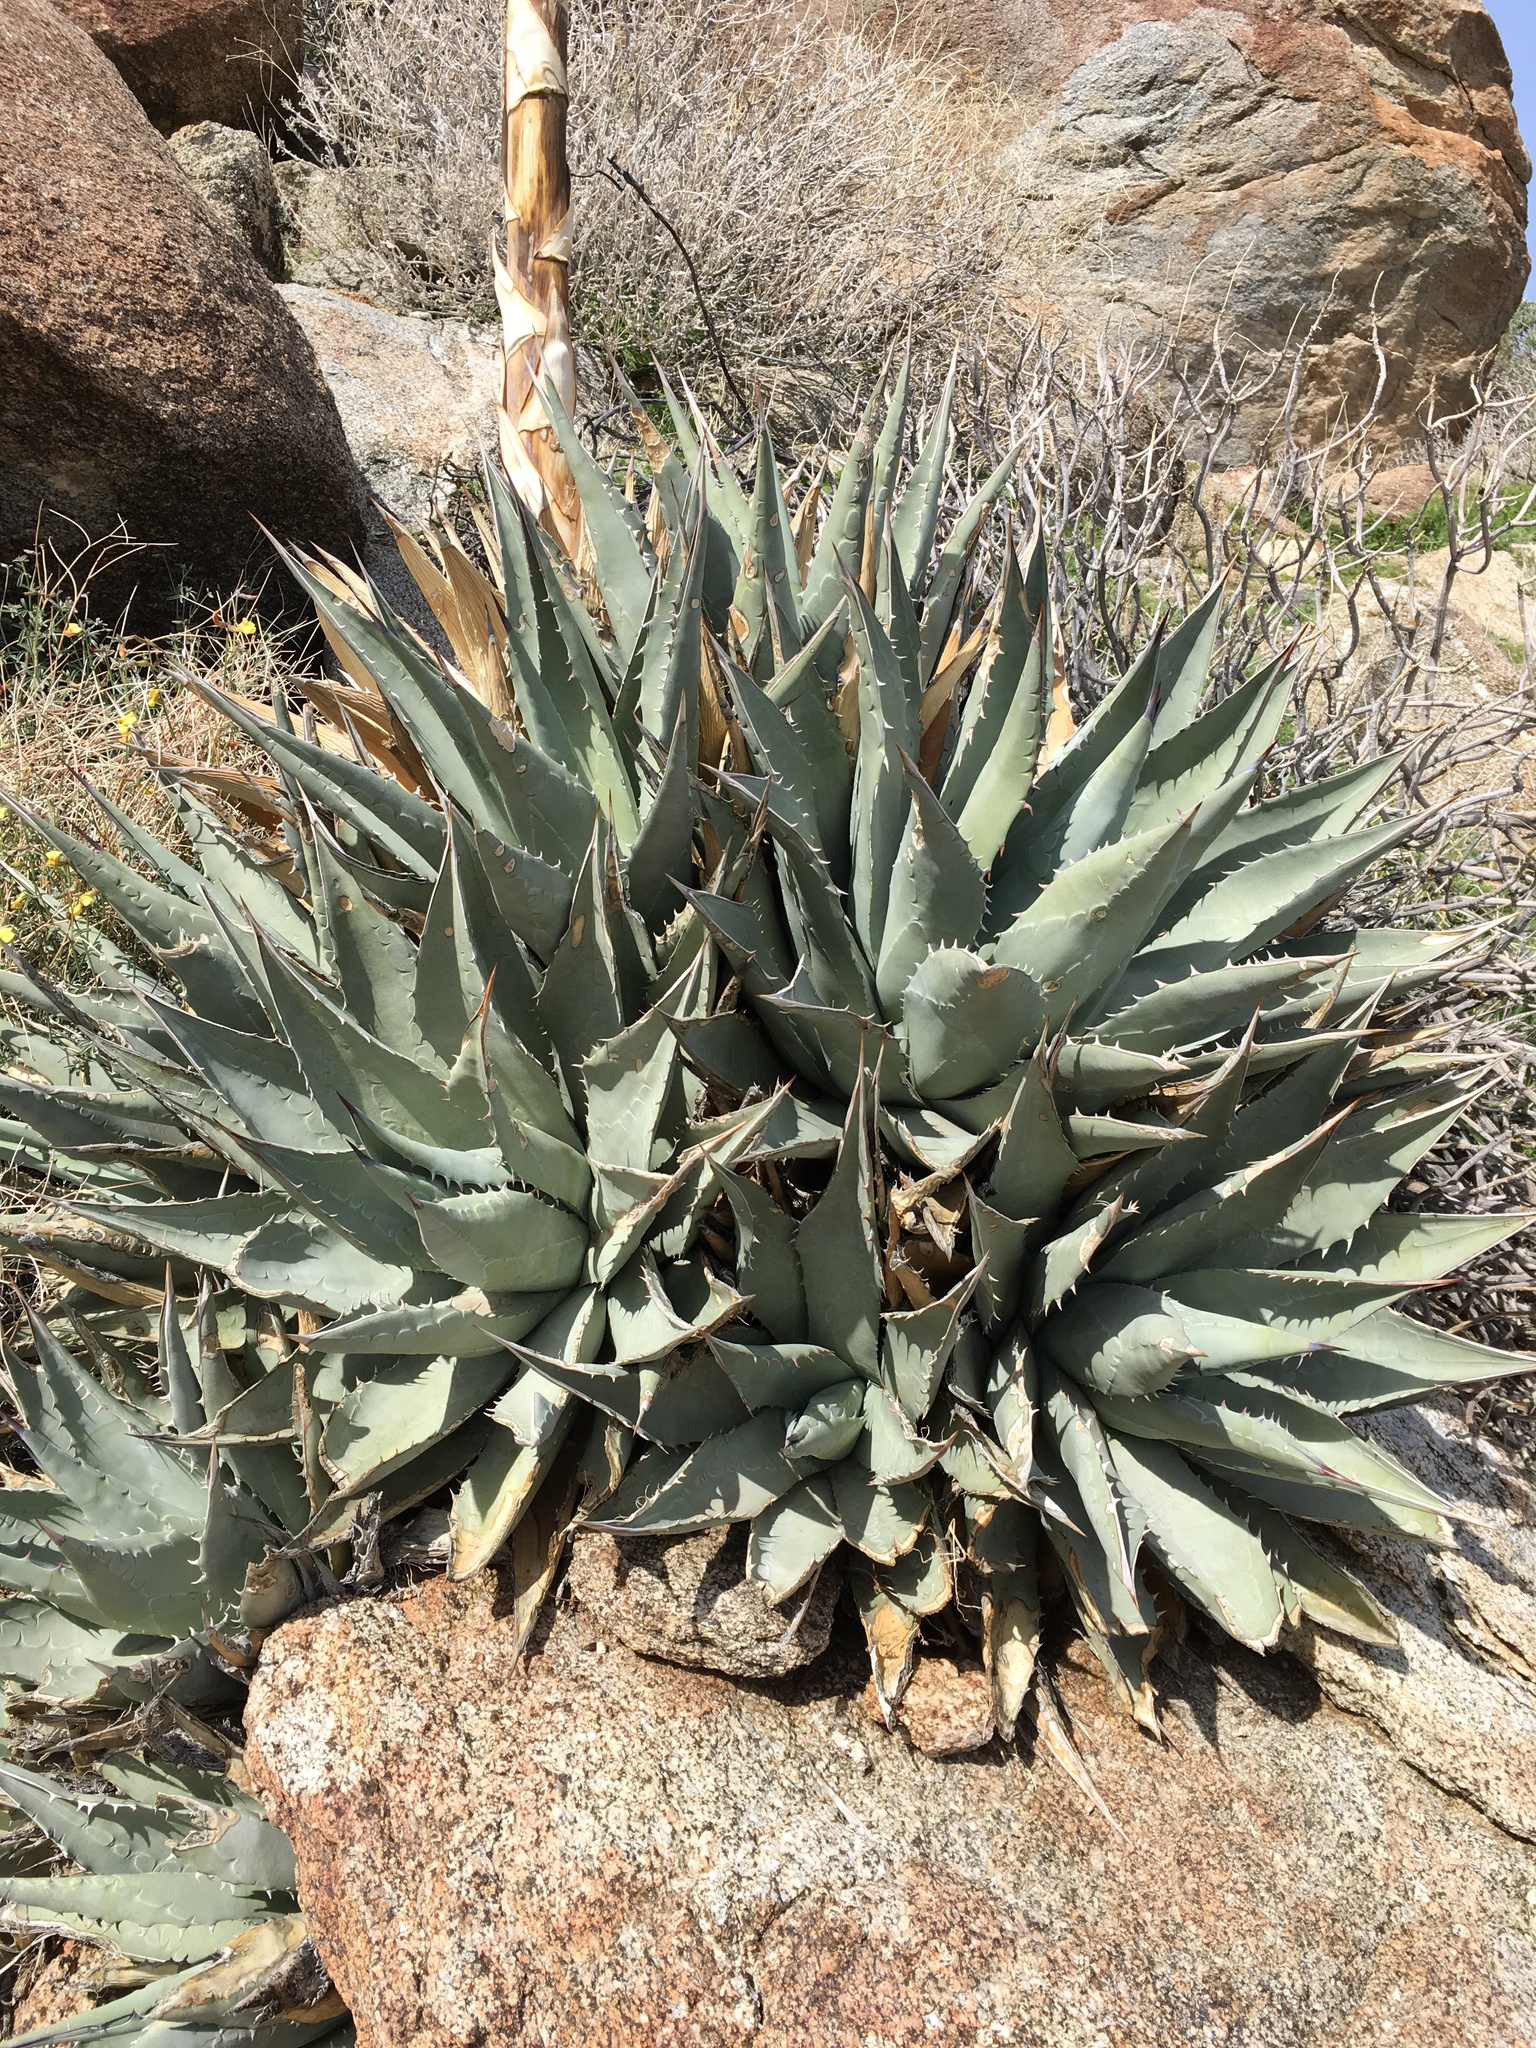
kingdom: Plantae
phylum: Tracheophyta
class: Liliopsida
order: Asparagales
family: Asparagaceae
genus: Agave
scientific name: Agave deserti
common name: Desert agave
